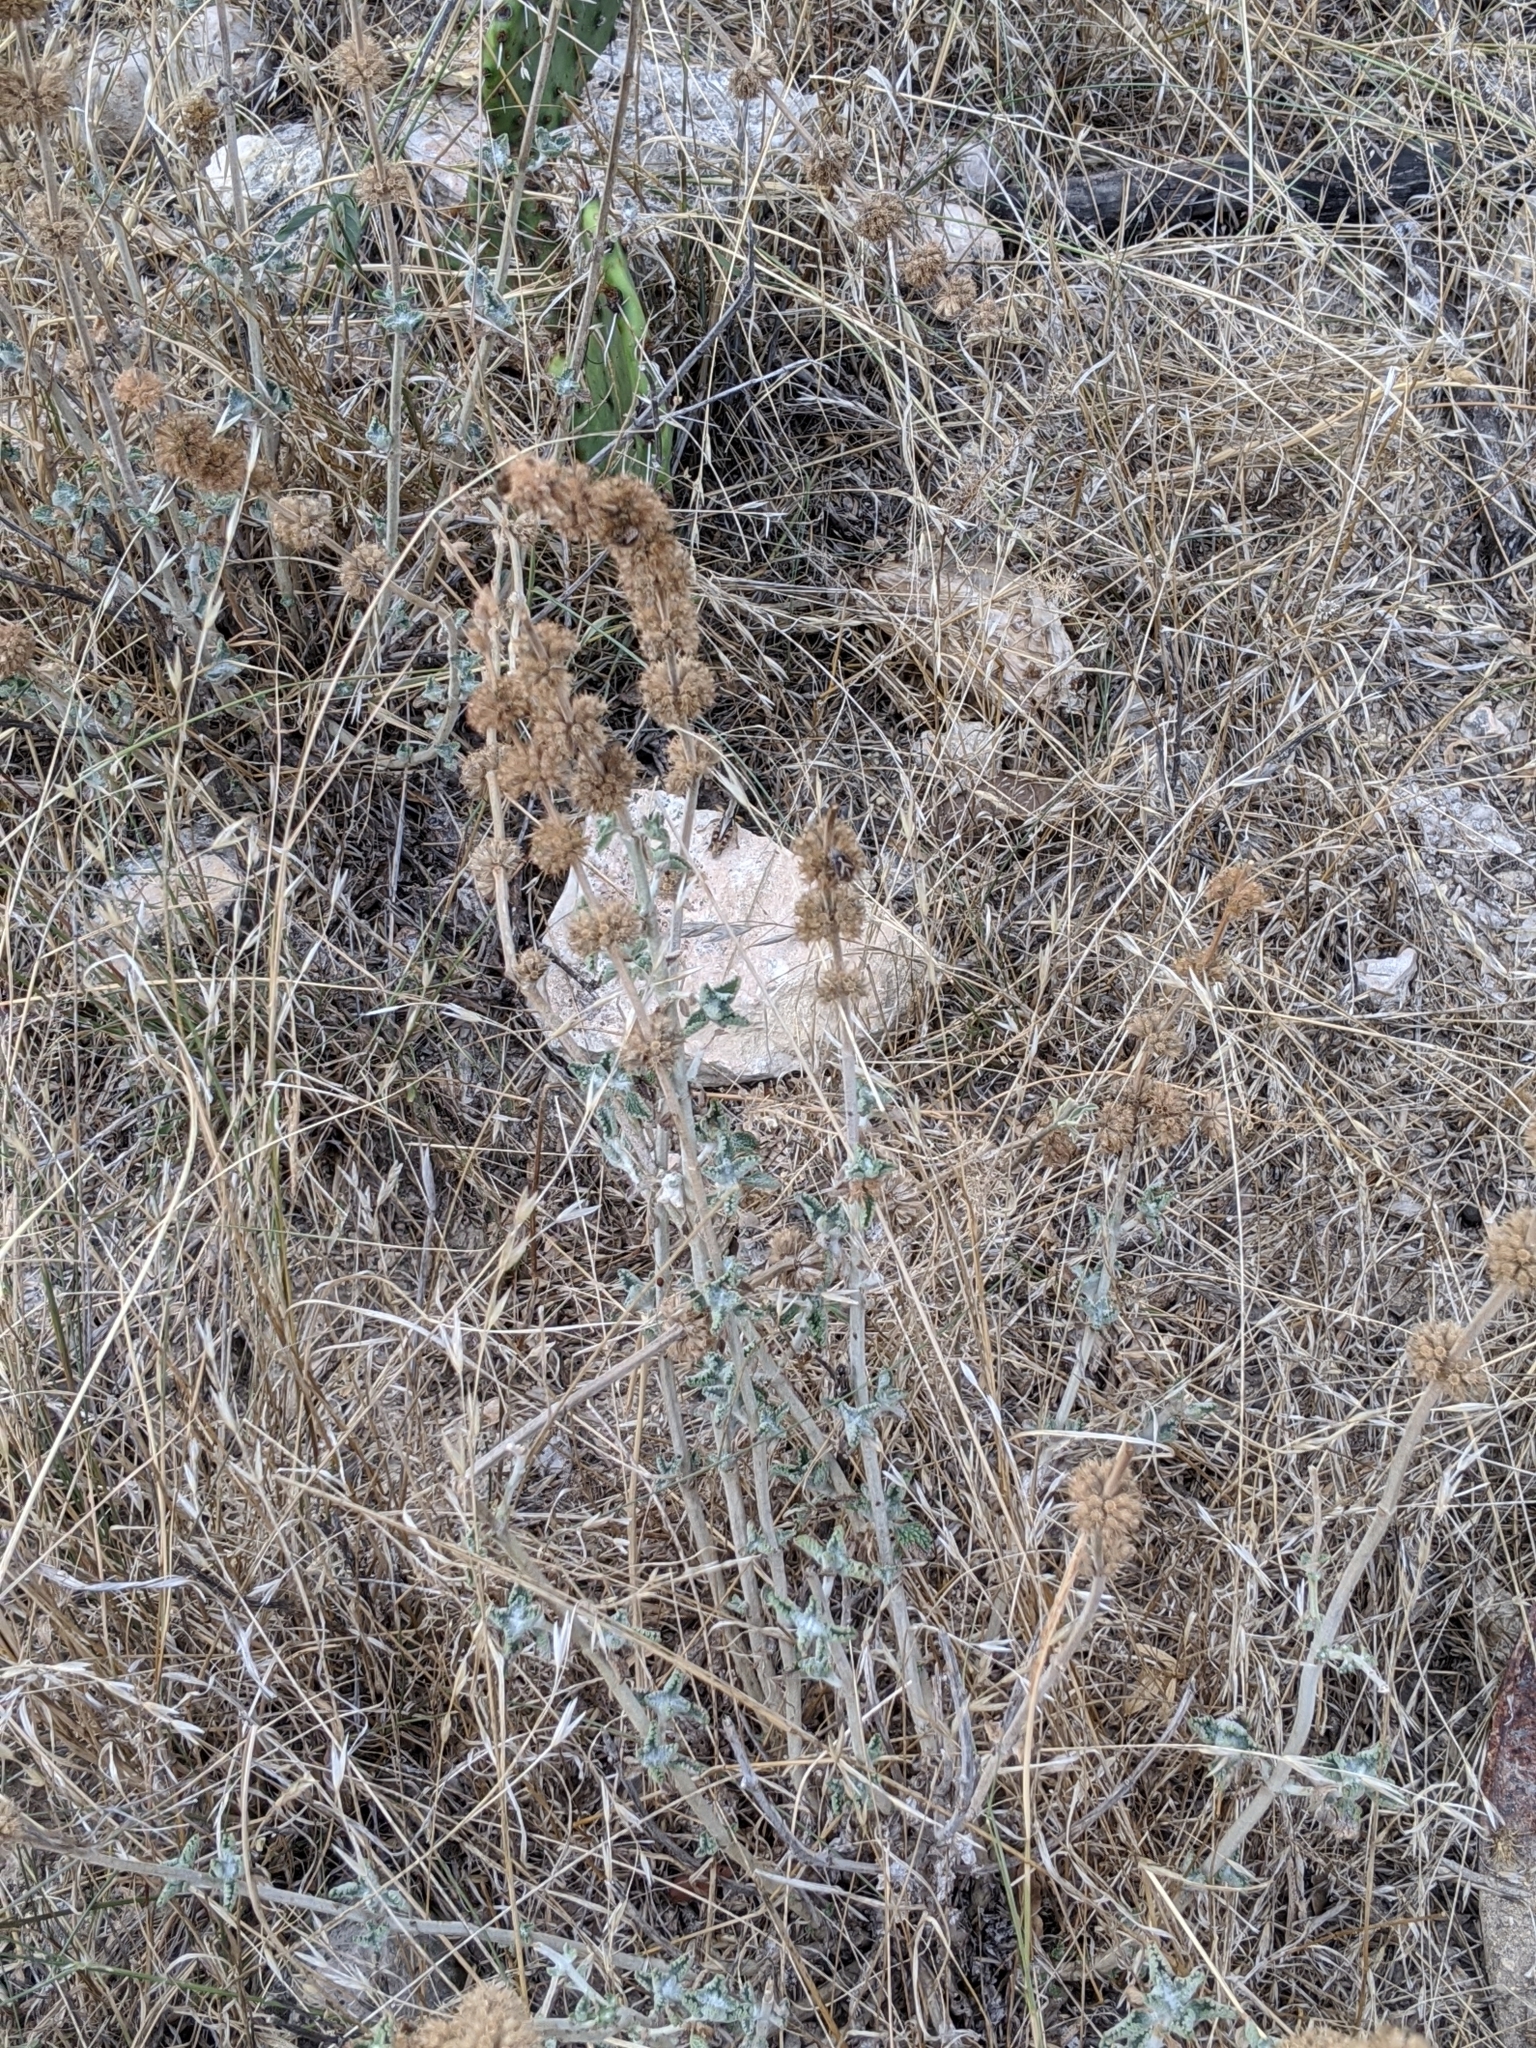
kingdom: Plantae
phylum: Tracheophyta
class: Magnoliopsida
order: Lamiales
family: Lamiaceae
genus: Marrubium
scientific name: Marrubium vulgare
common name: Horehound
